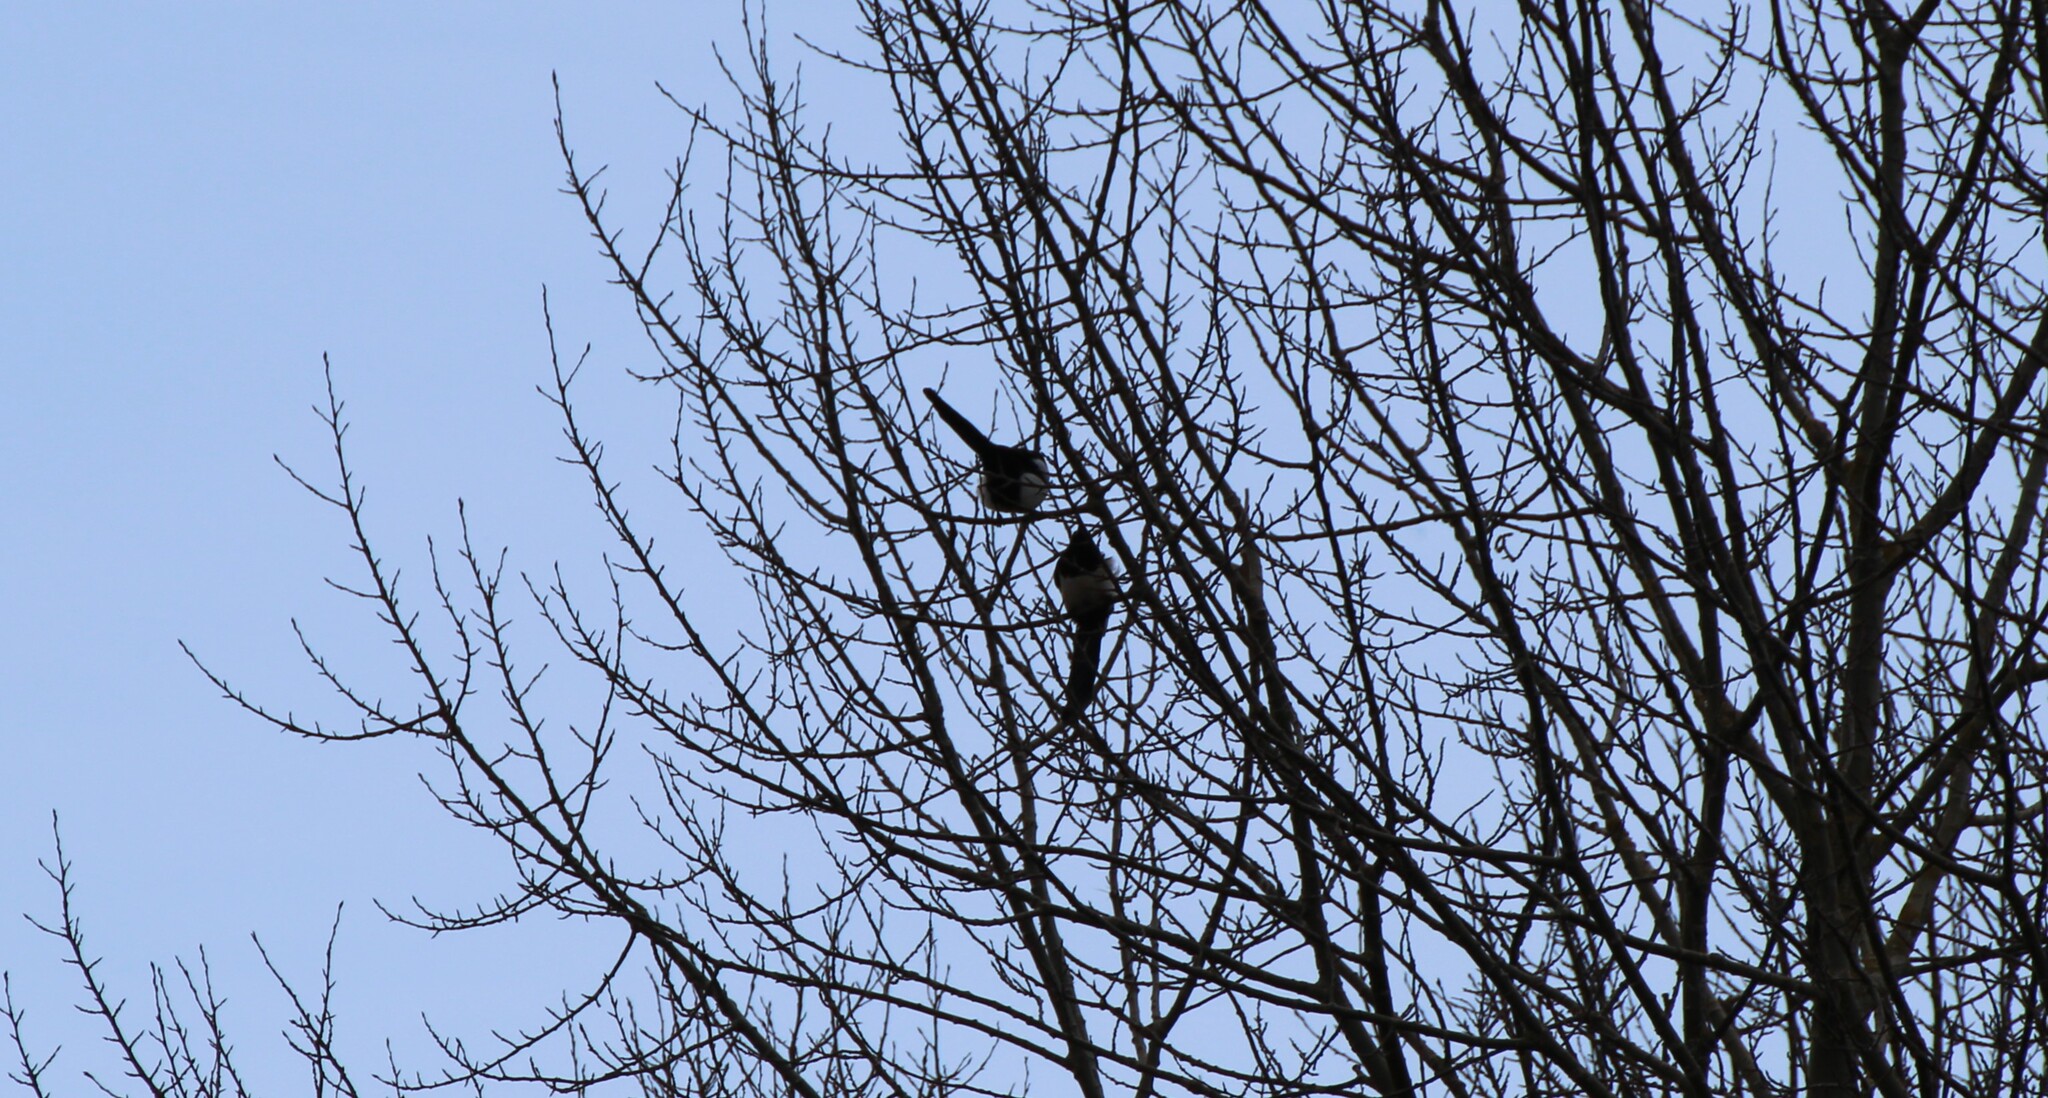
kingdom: Animalia
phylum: Chordata
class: Aves
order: Passeriformes
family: Corvidae
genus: Pica
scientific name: Pica pica
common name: Eurasian magpie
